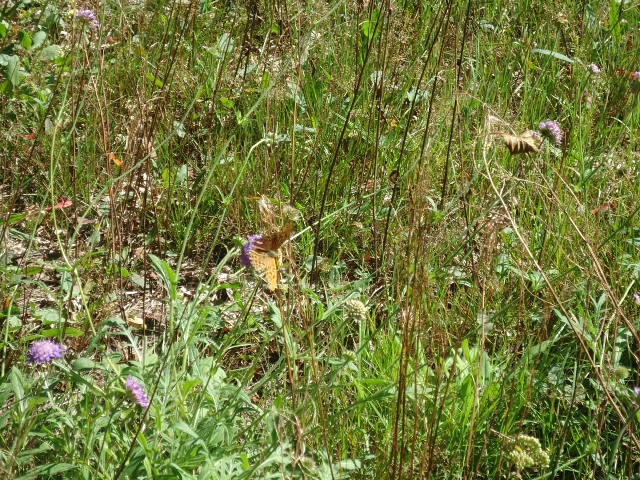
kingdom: Animalia
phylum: Arthropoda
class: Insecta
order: Lepidoptera
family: Nymphalidae
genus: Argynnis
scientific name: Argynnis paphia
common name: Silver-washed fritillary
